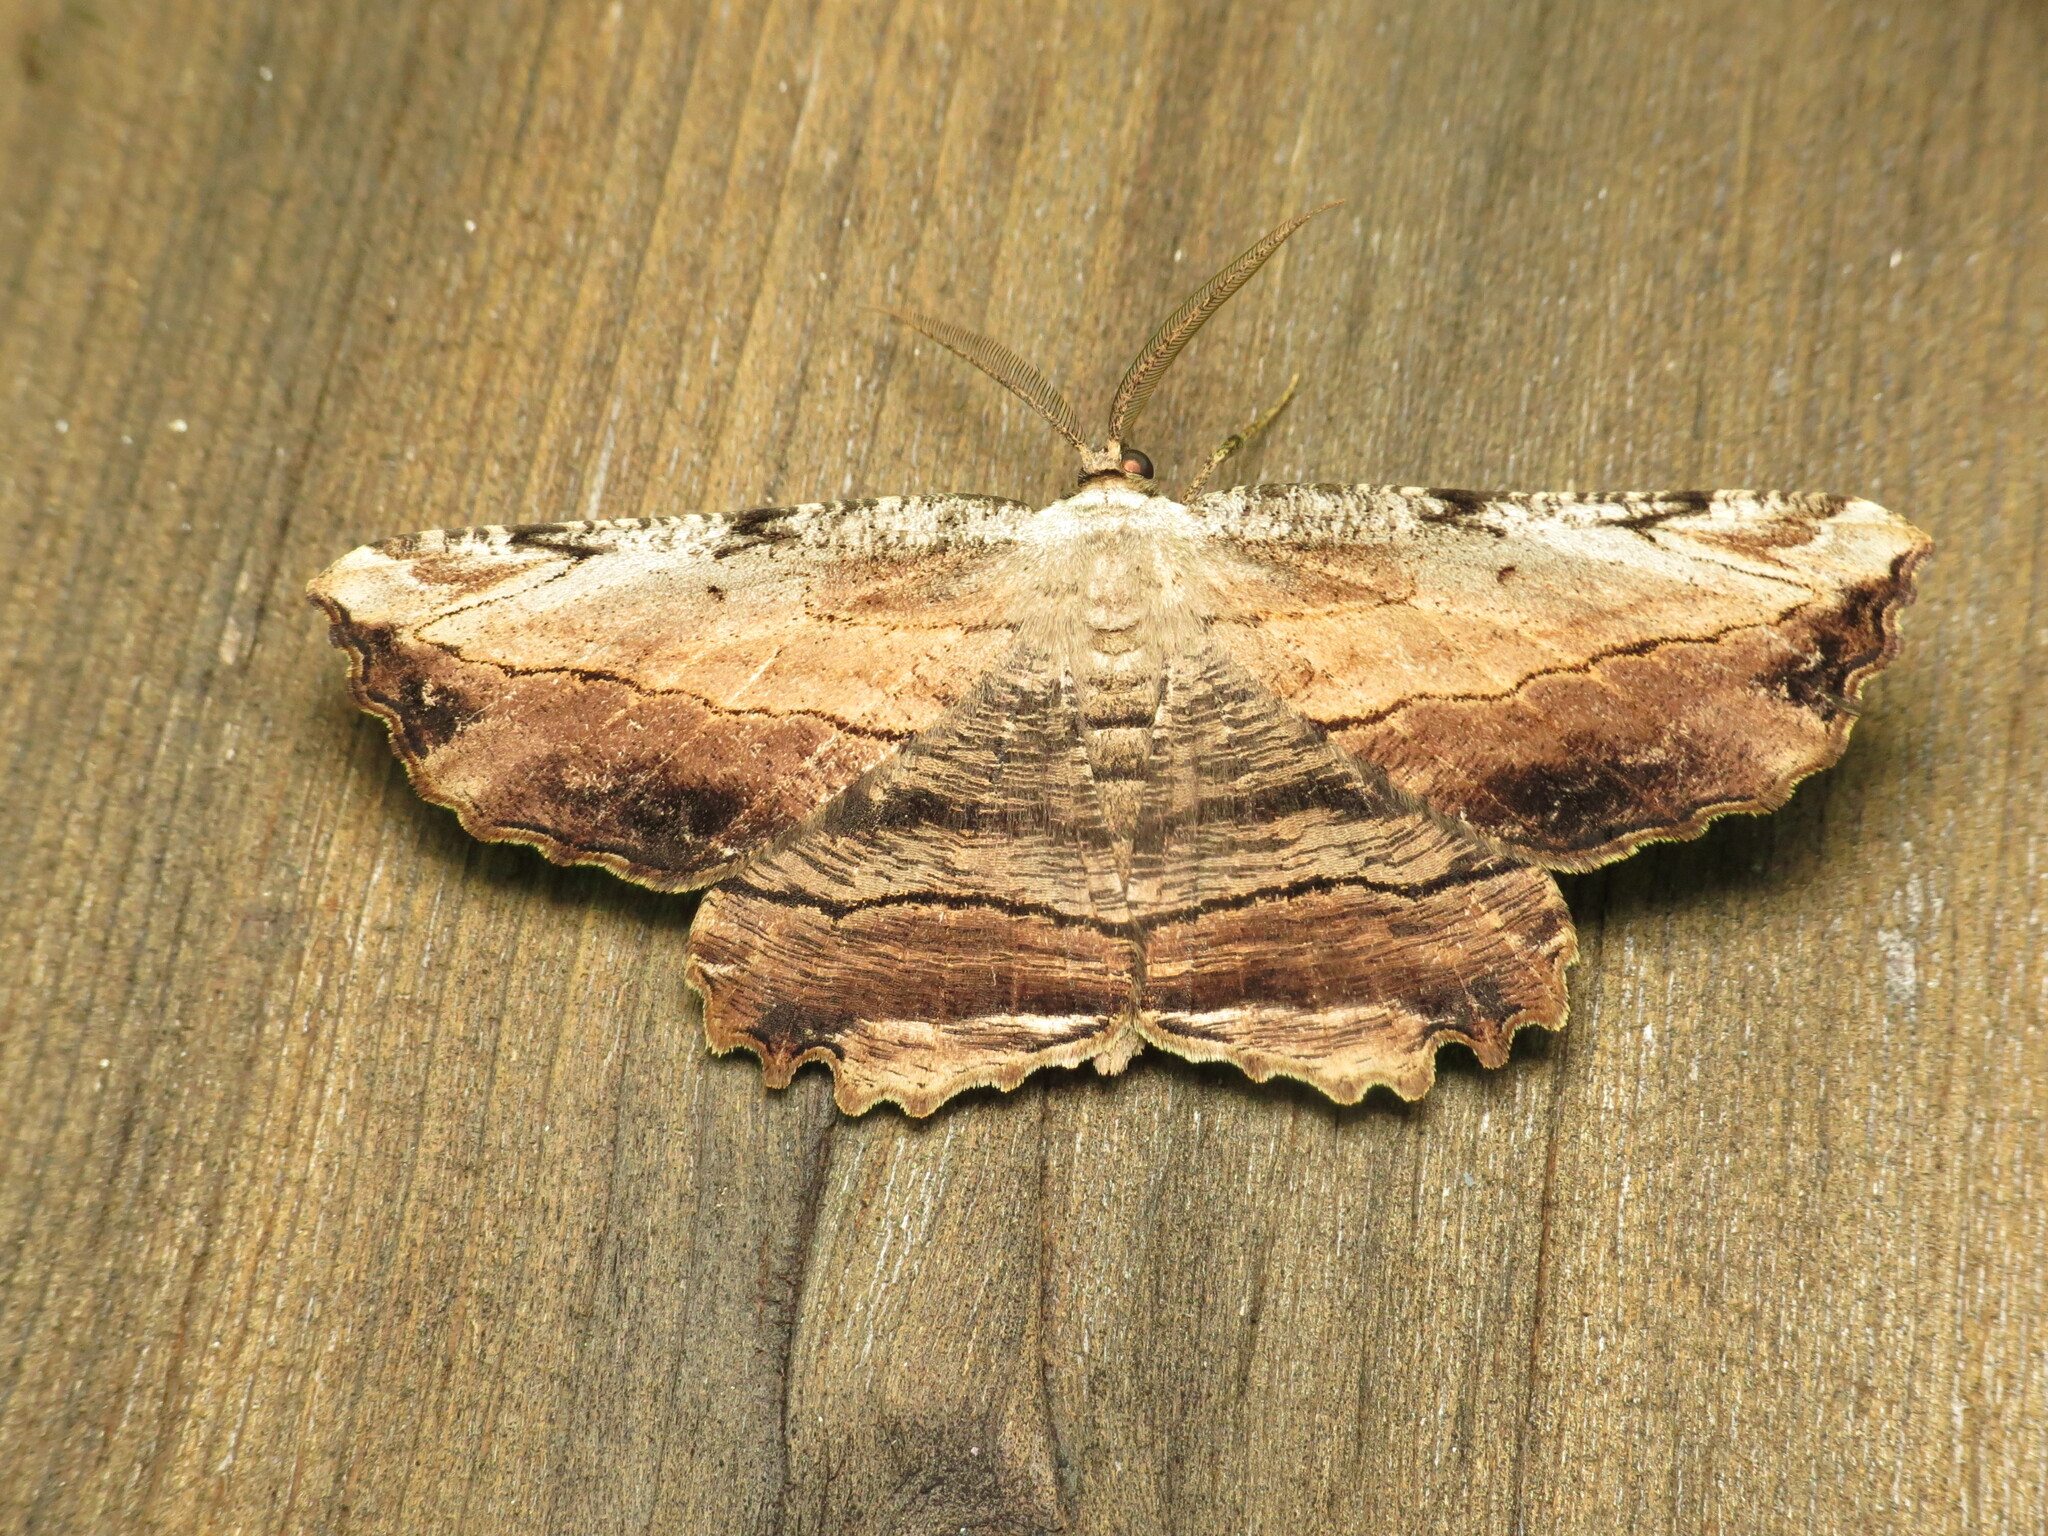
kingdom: Animalia
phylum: Arthropoda
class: Insecta
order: Lepidoptera
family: Geometridae
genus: Lytrosis
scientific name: Lytrosis unitaria
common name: Common lytrosis
